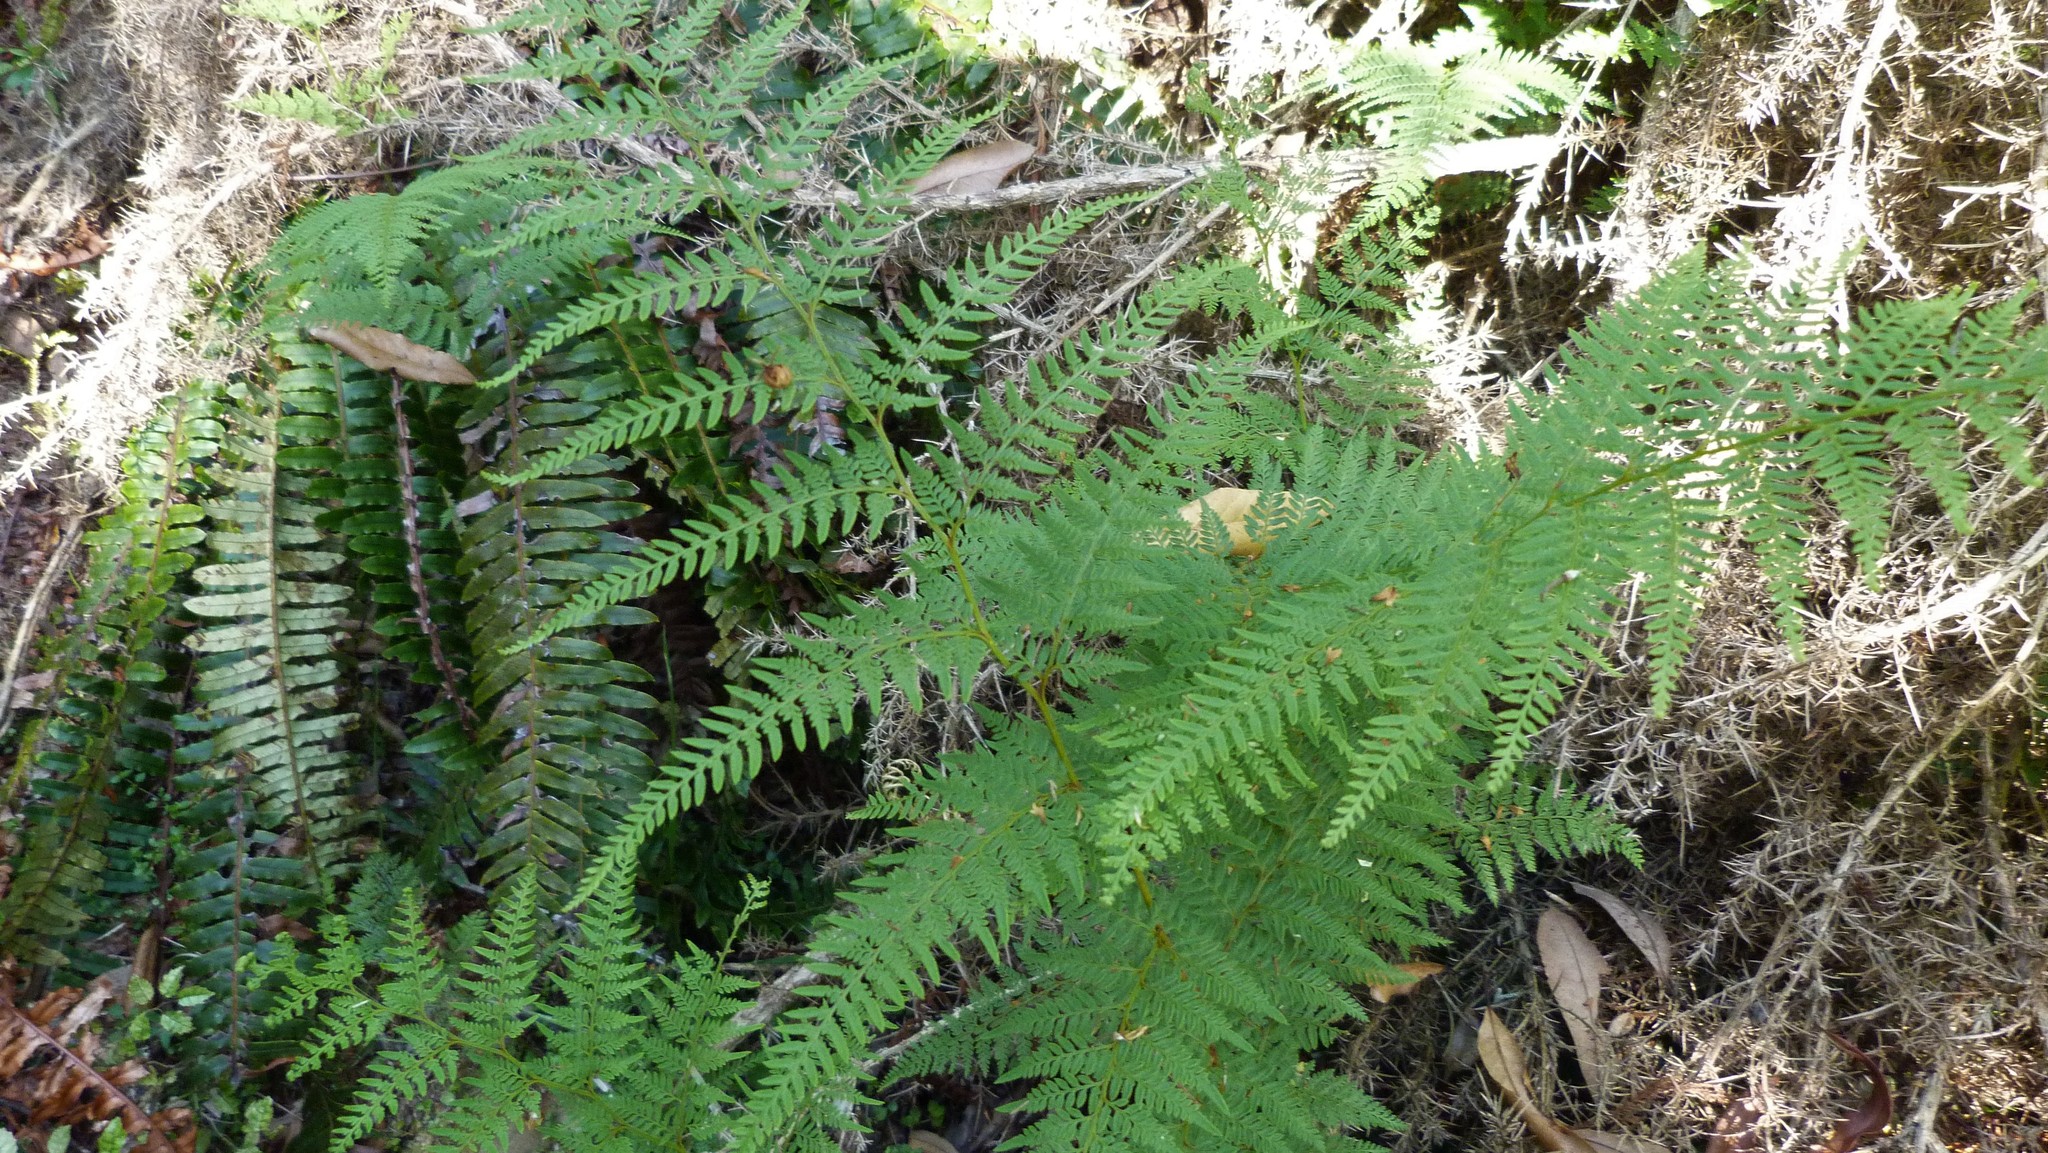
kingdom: Plantae
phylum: Tracheophyta
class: Polypodiopsida
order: Polypodiales
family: Dennstaedtiaceae
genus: Paesia
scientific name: Paesia scaberula
